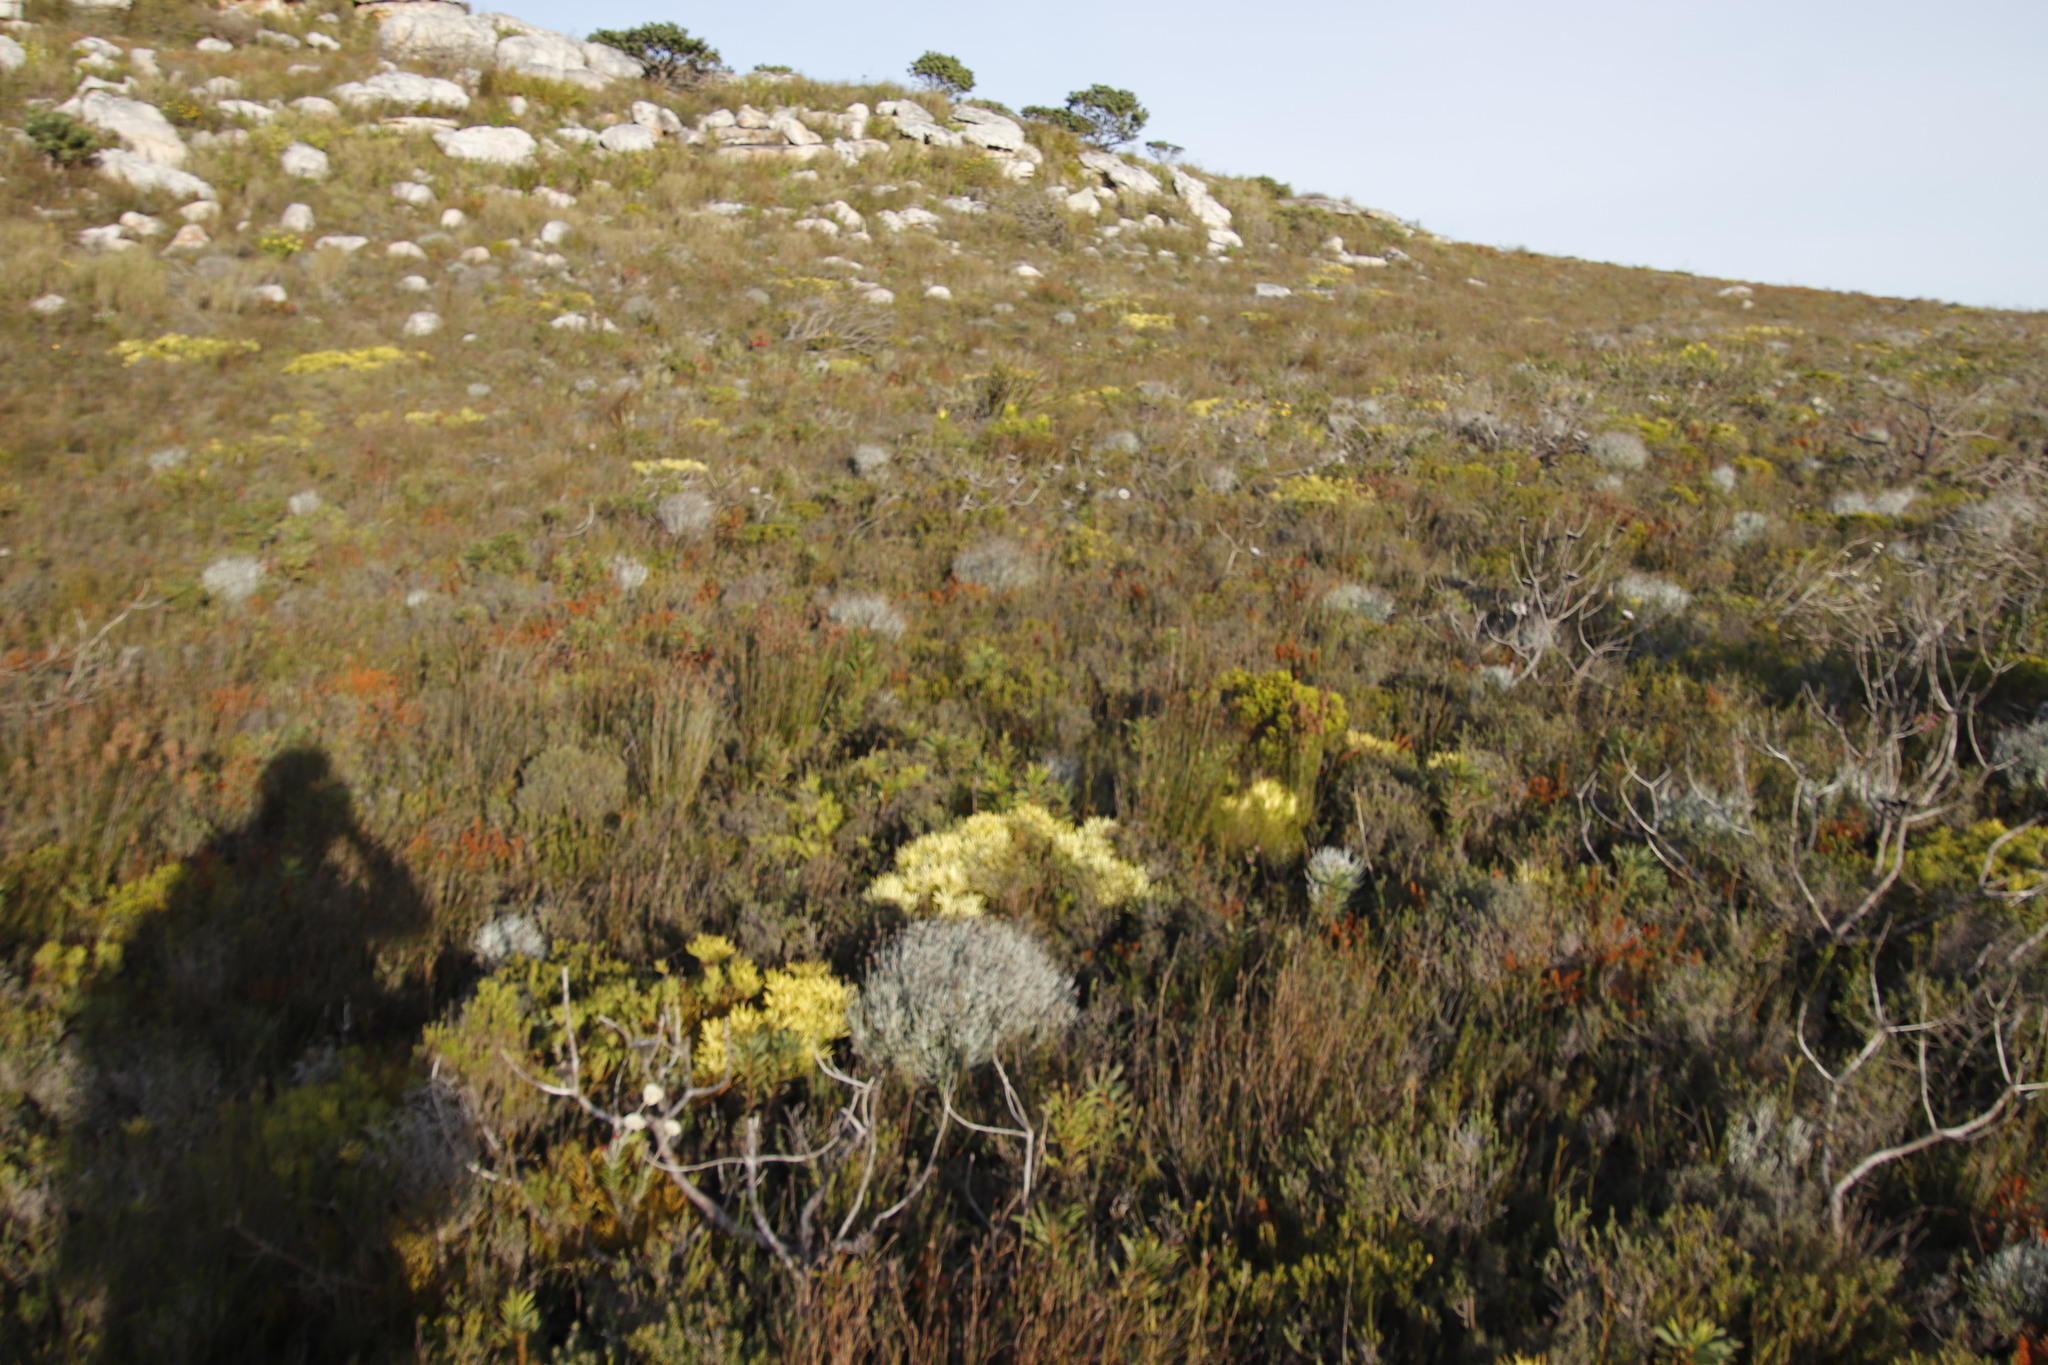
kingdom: Plantae
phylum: Tracheophyta
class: Magnoliopsida
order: Proteales
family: Proteaceae
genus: Leucadendron
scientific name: Leucadendron salignum
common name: Common sunshine conebush
